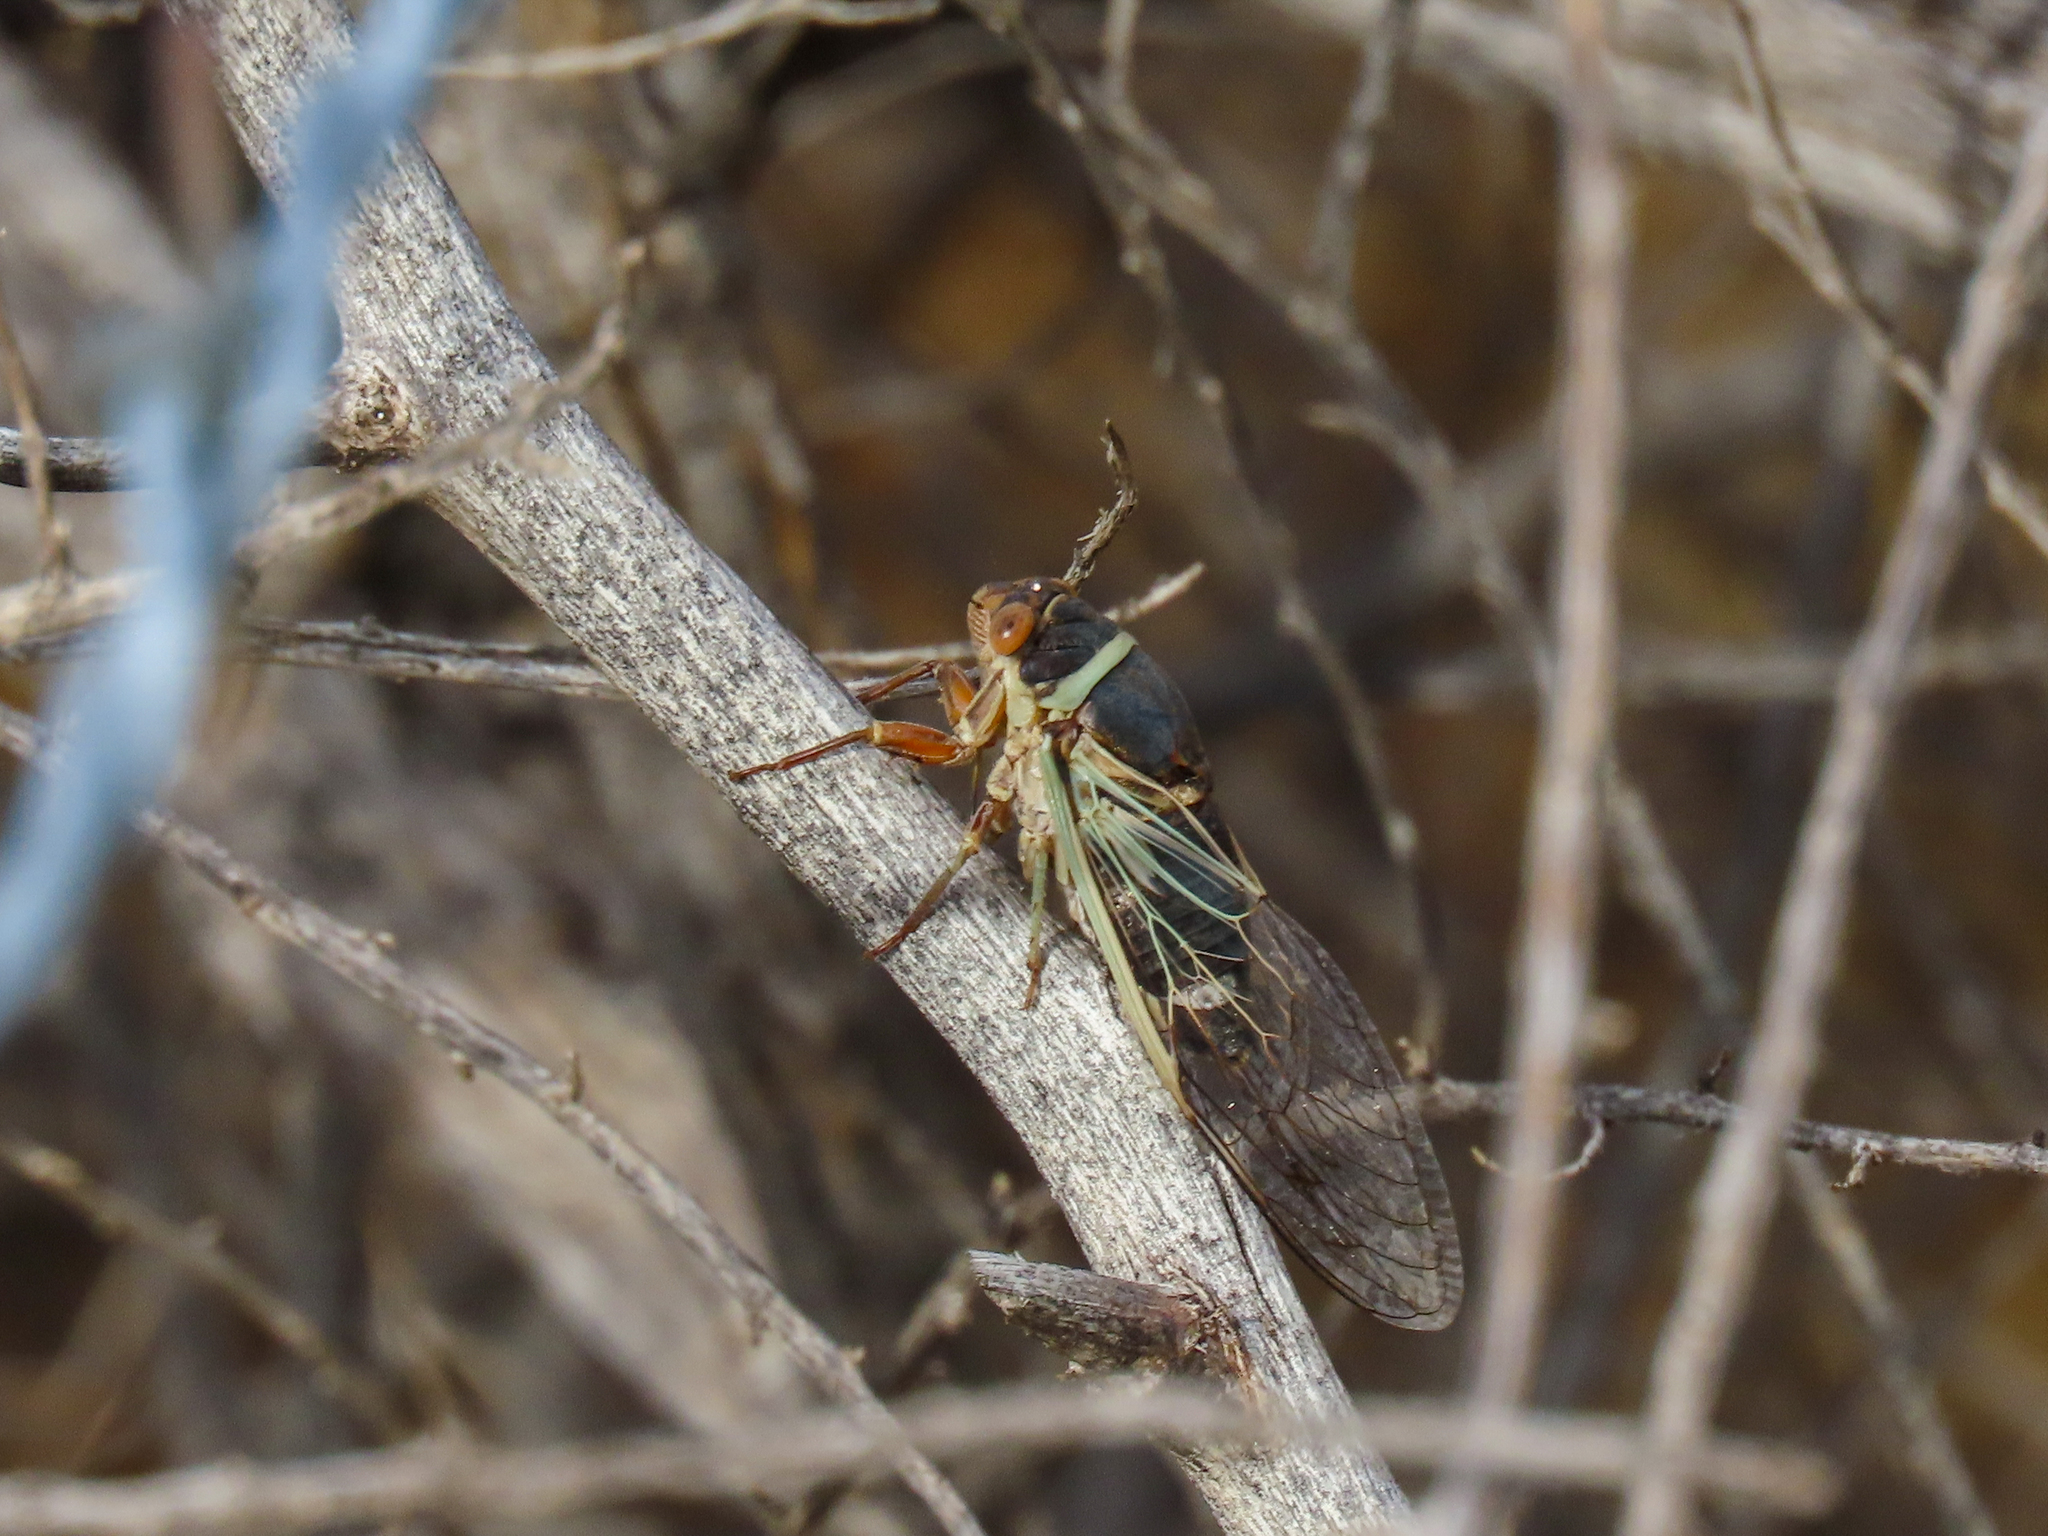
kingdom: Animalia
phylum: Arthropoda
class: Insecta
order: Hemiptera
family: Cicadidae
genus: Diceroprocta
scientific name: Diceroprocta apache
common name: Desert cicada
